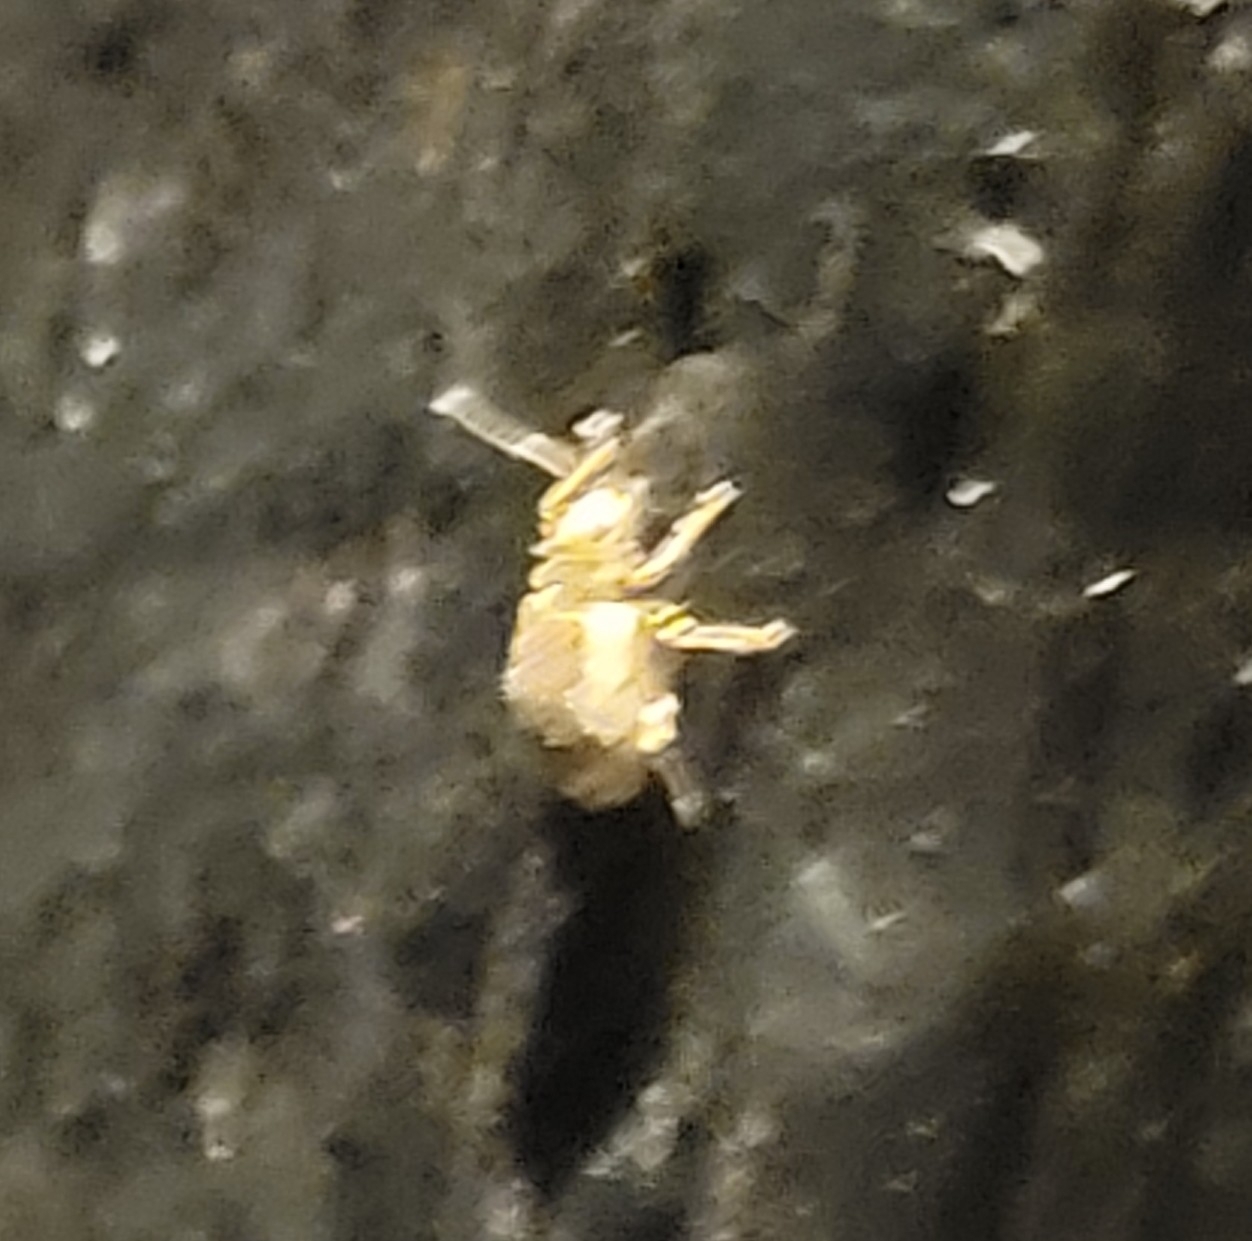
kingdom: Animalia
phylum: Arthropoda
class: Insecta
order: Coleoptera
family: Curculionidae
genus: Pseudoedophrys
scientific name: Pseudoedophrys hilleri
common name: Weevil
